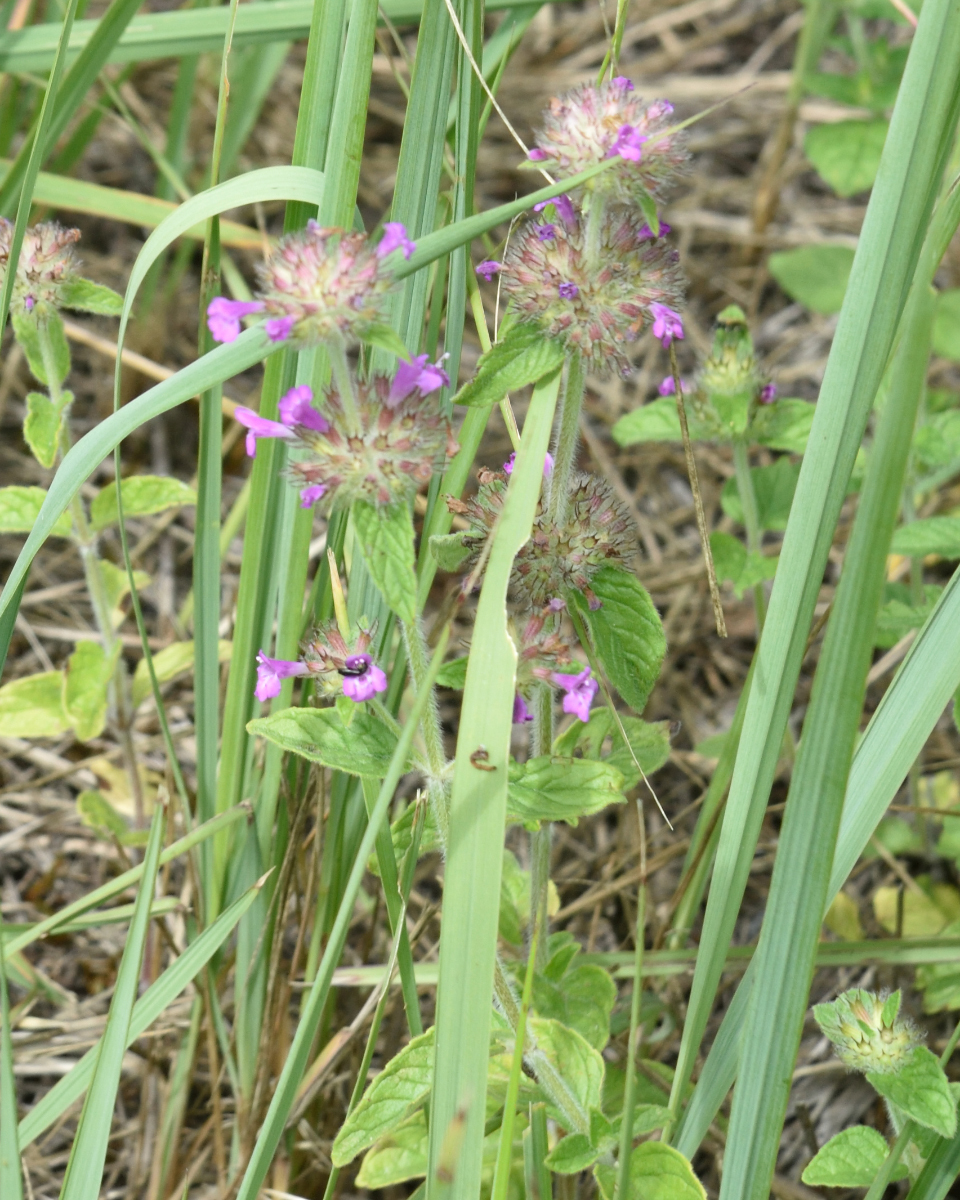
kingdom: Plantae
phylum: Tracheophyta
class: Magnoliopsida
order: Lamiales
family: Lamiaceae
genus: Clinopodium
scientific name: Clinopodium vulgare
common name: Wild basil
